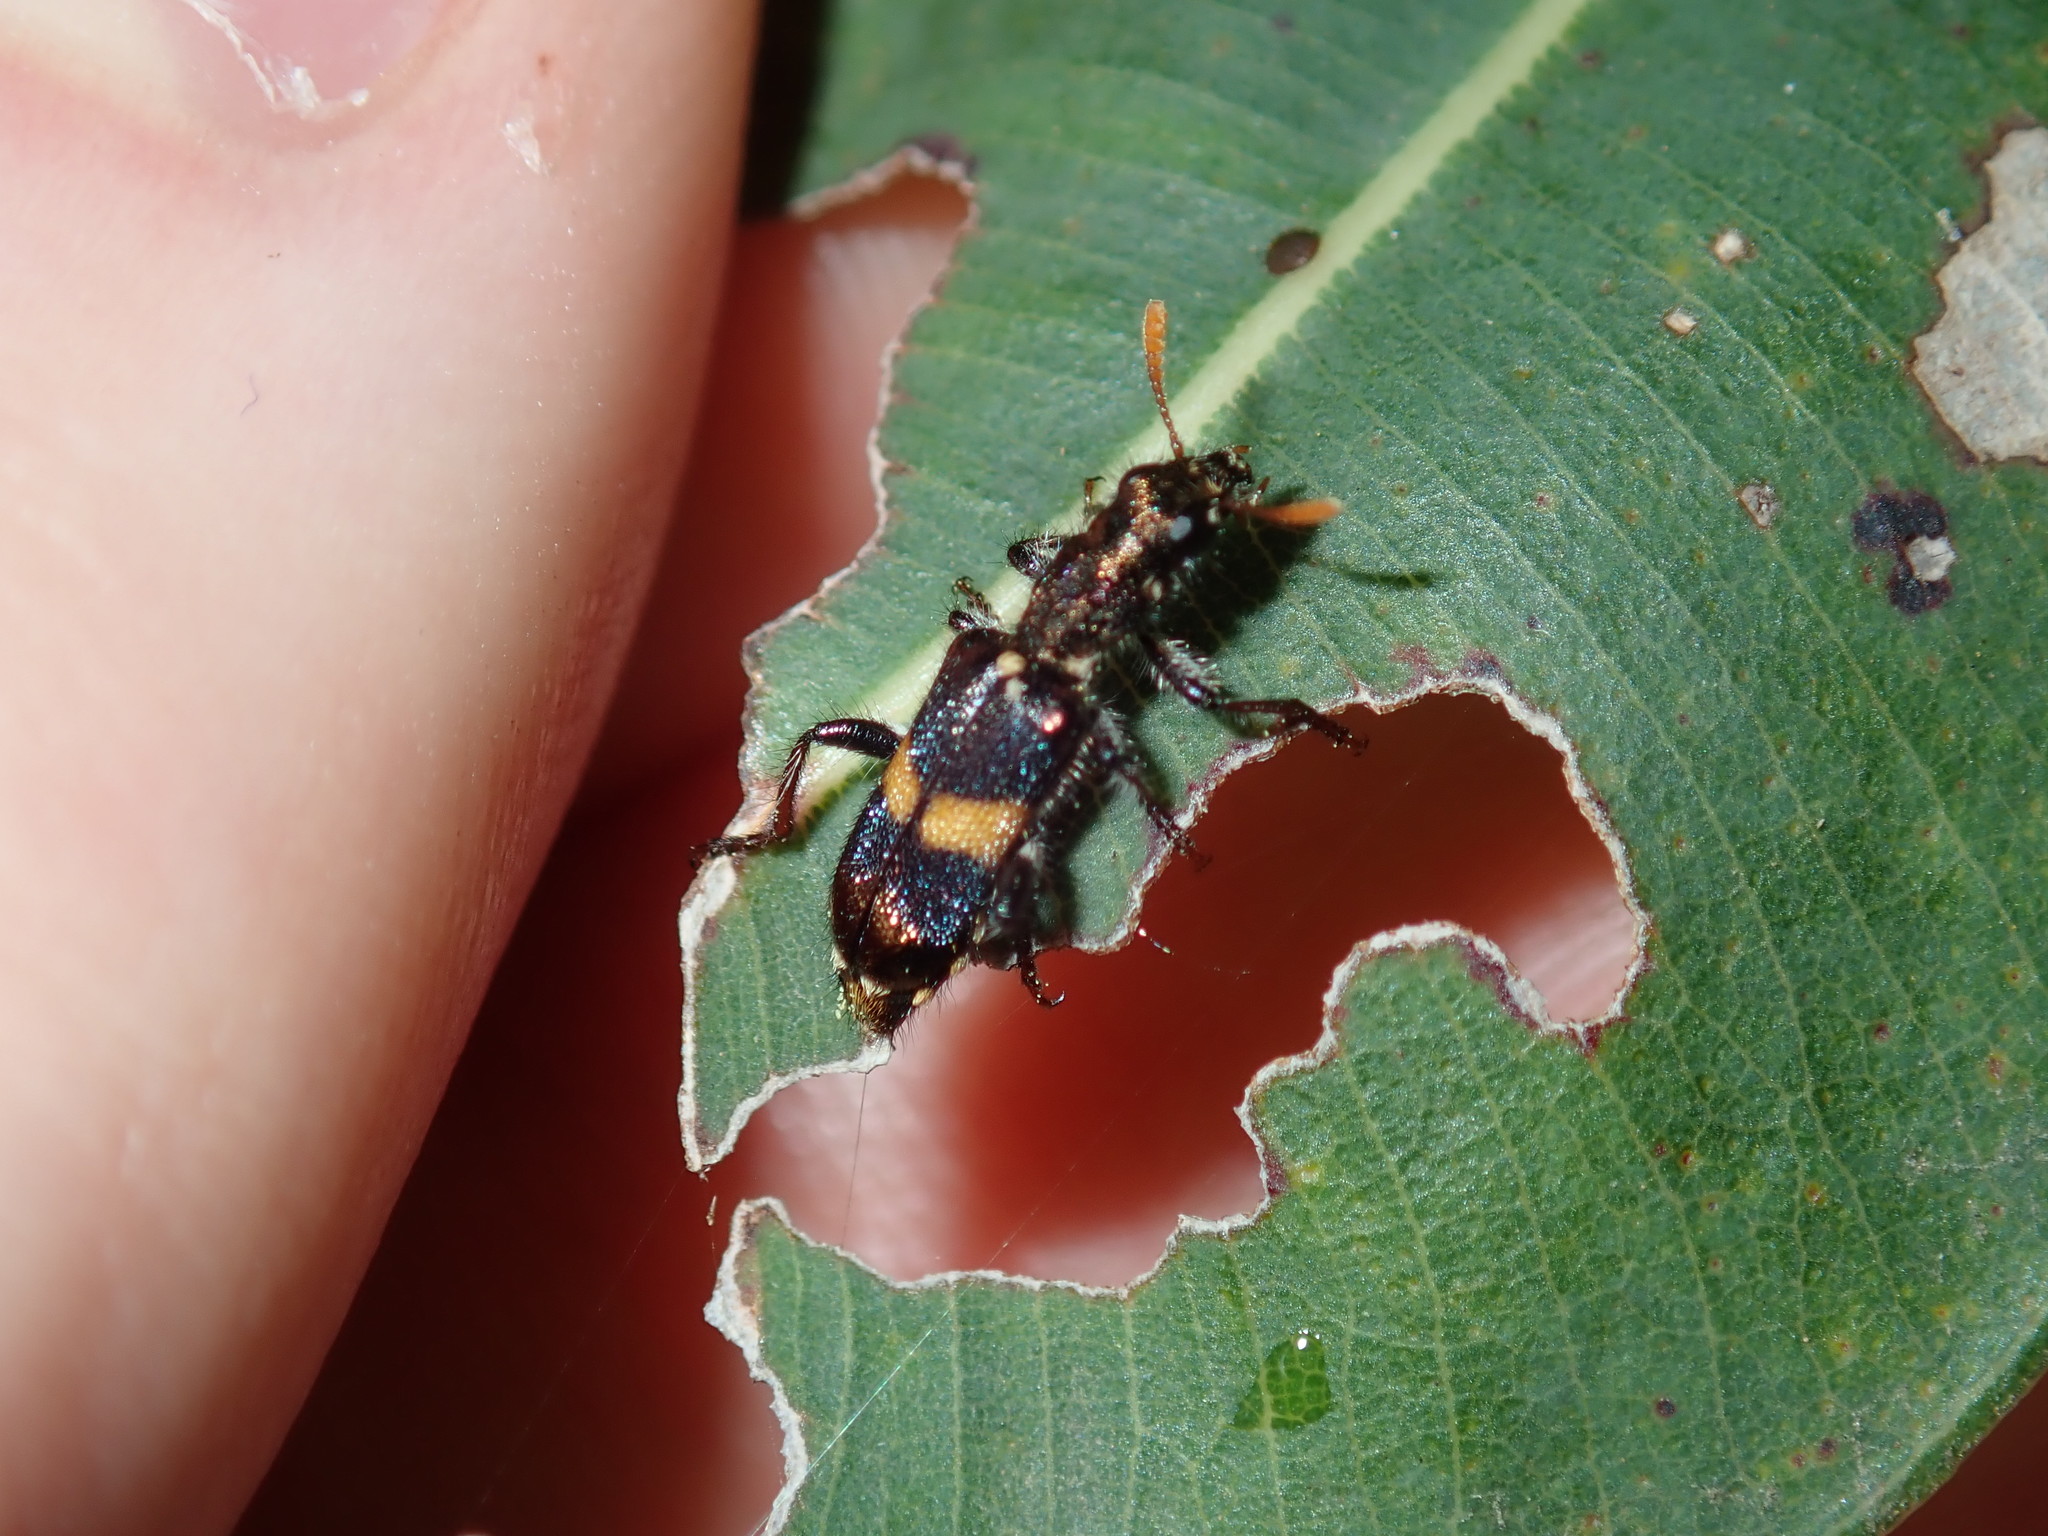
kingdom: Animalia
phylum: Arthropoda
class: Insecta
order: Coleoptera
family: Cleridae
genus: Eleale
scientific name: Eleale
